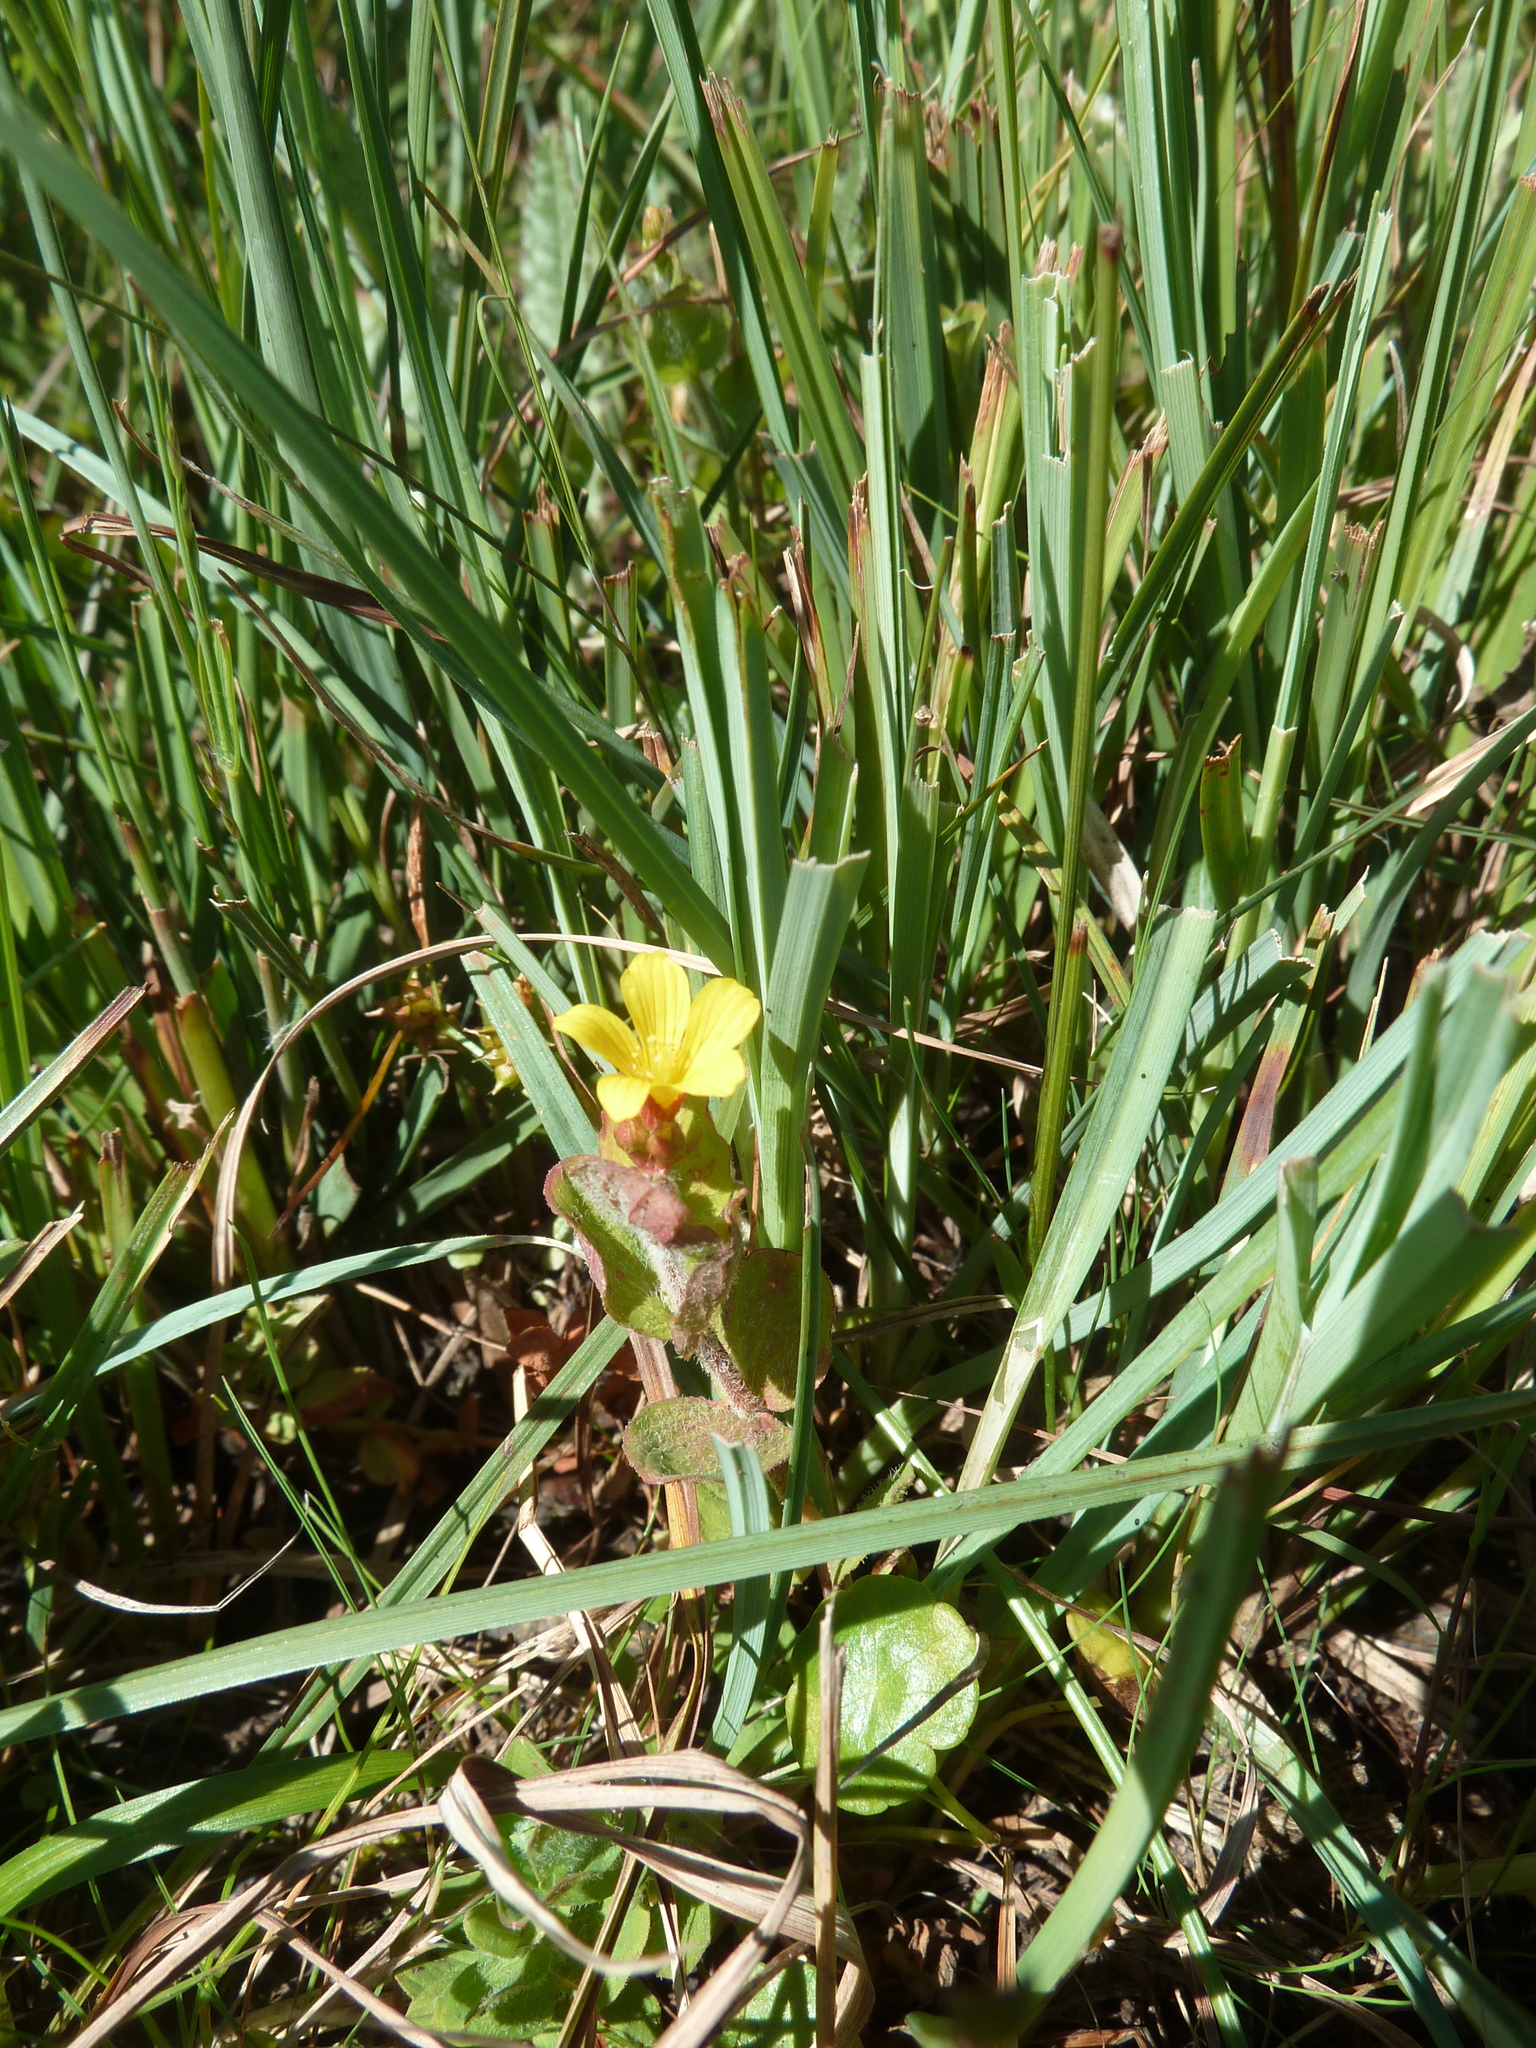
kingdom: Plantae
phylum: Tracheophyta
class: Magnoliopsida
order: Malpighiales
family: Hypericaceae
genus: Hypericum
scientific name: Hypericum elodes
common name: Marsh st. john's-wort
